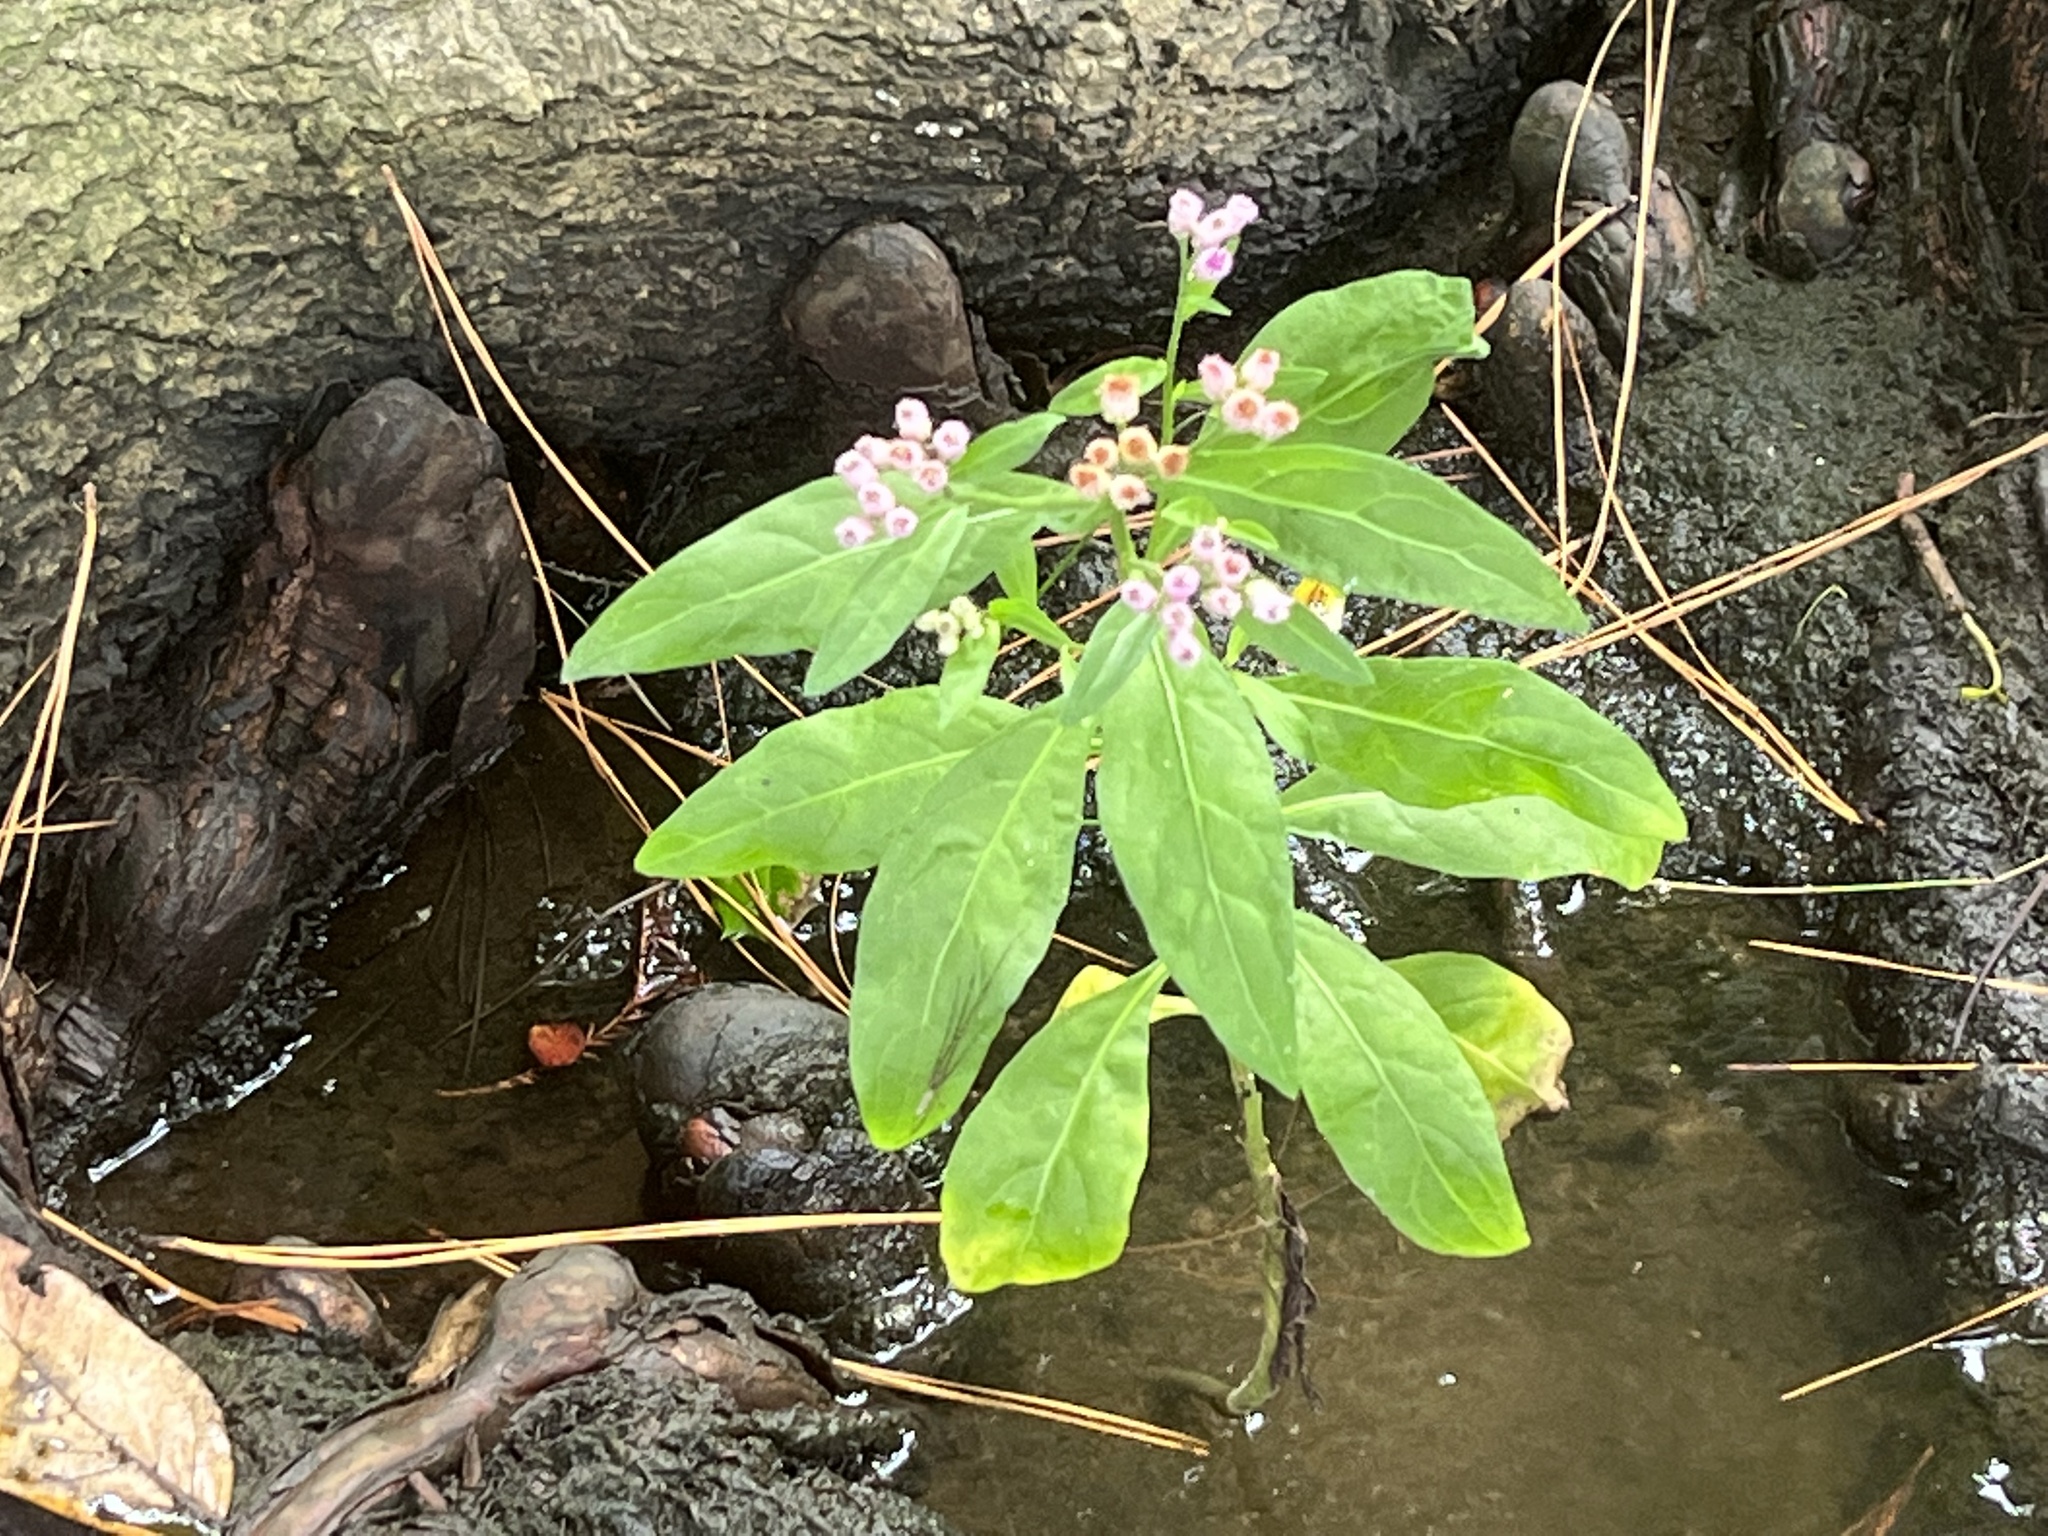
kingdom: Plantae
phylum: Tracheophyta
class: Magnoliopsida
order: Asterales
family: Asteraceae
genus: Pluchea
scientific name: Pluchea odorata
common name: Saltmarsh fleabane
